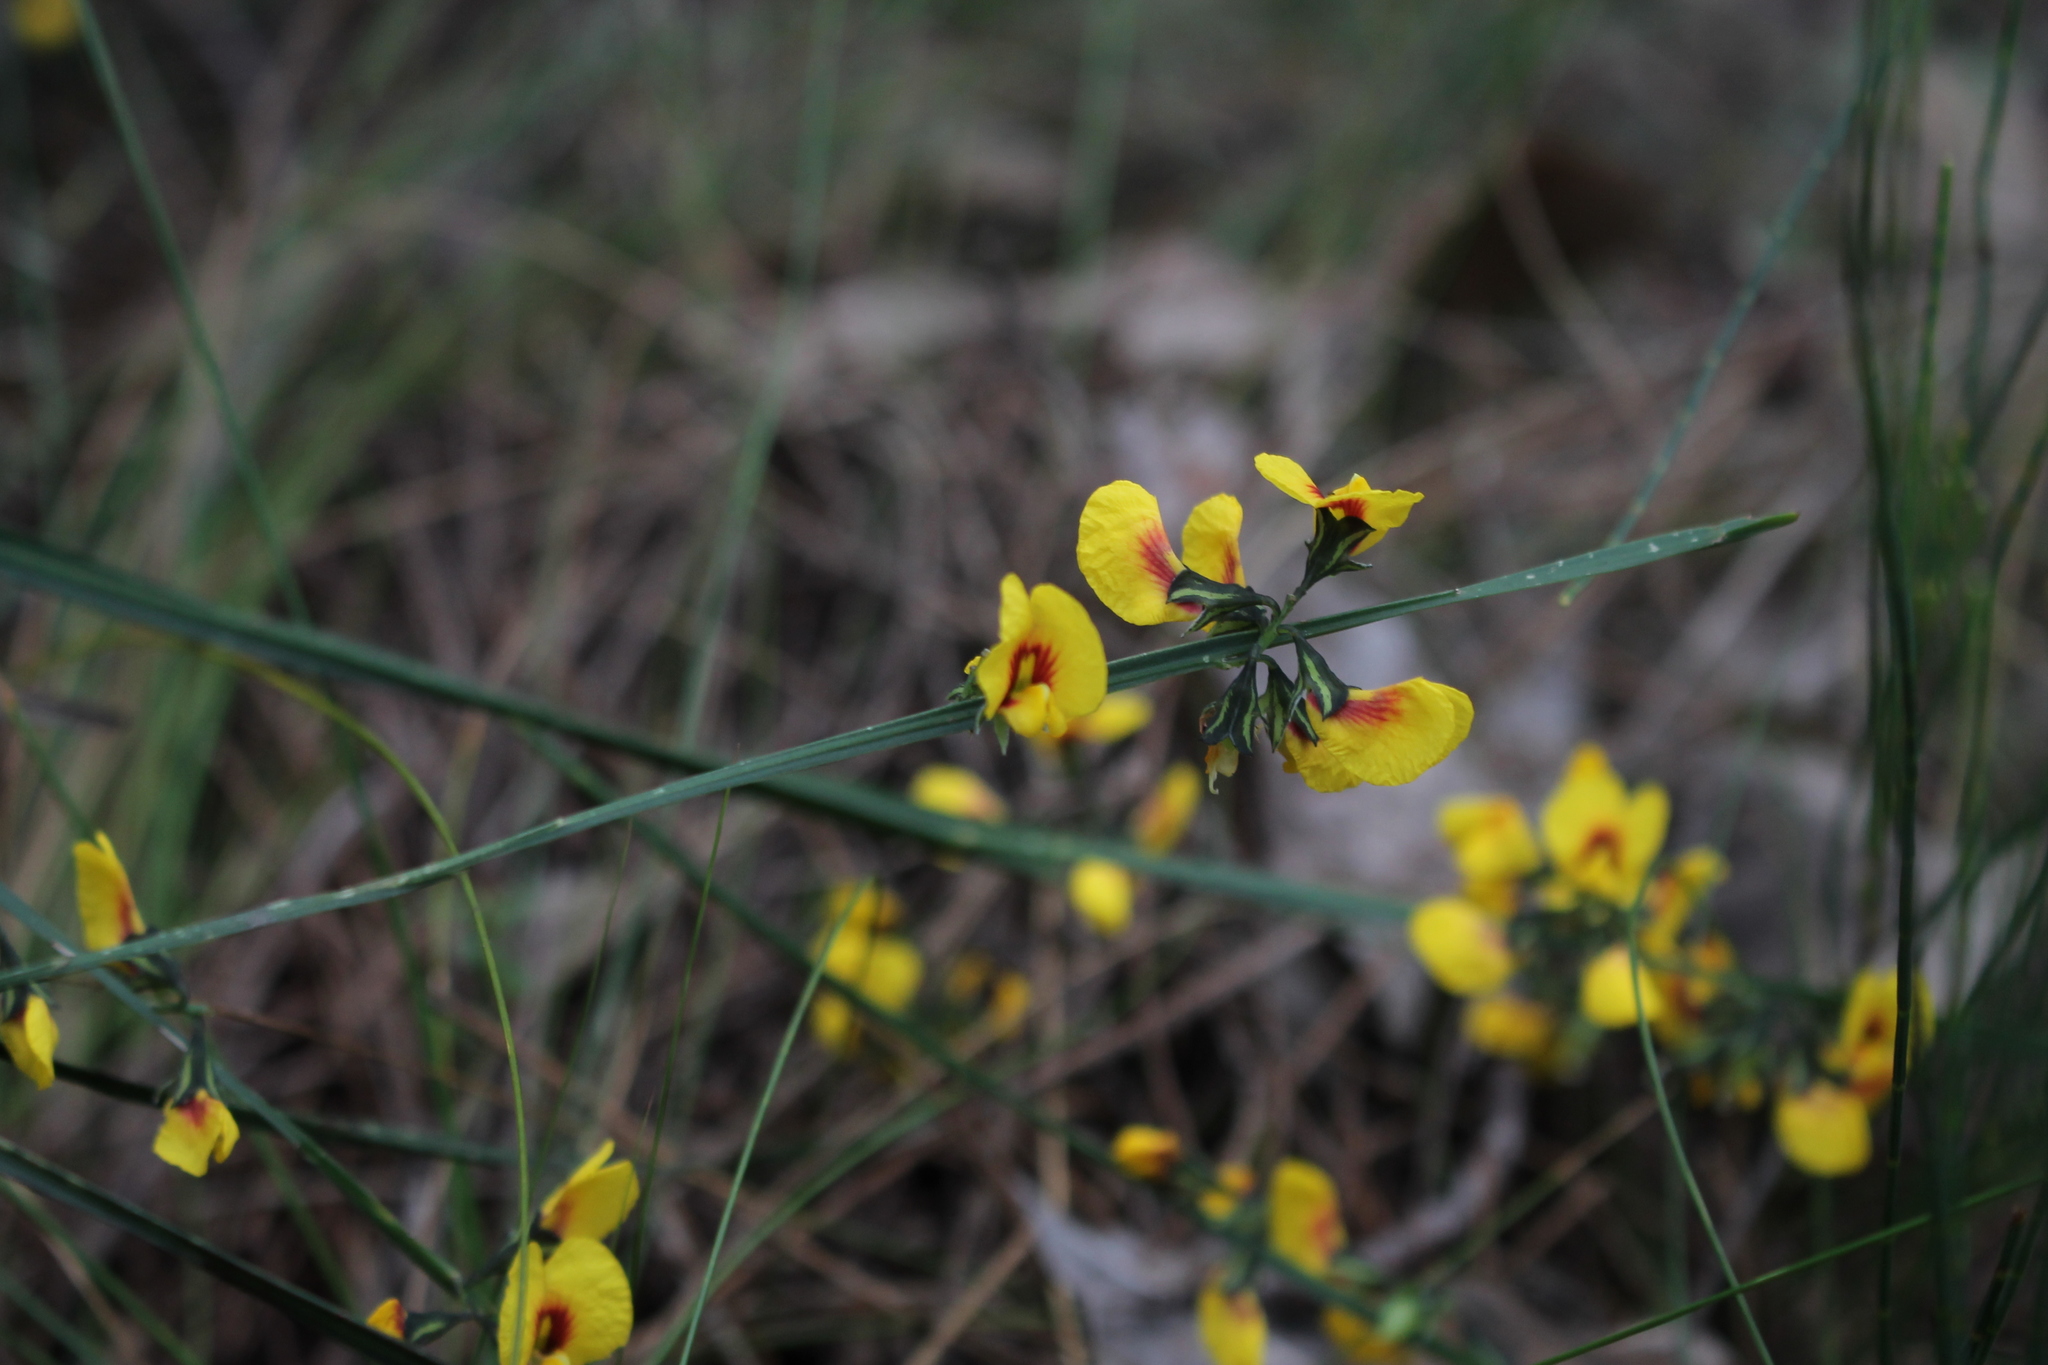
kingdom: Plantae
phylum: Tracheophyta
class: Magnoliopsida
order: Fabales
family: Fabaceae
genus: Sphaerolobium
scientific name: Sphaerolobium alatum
